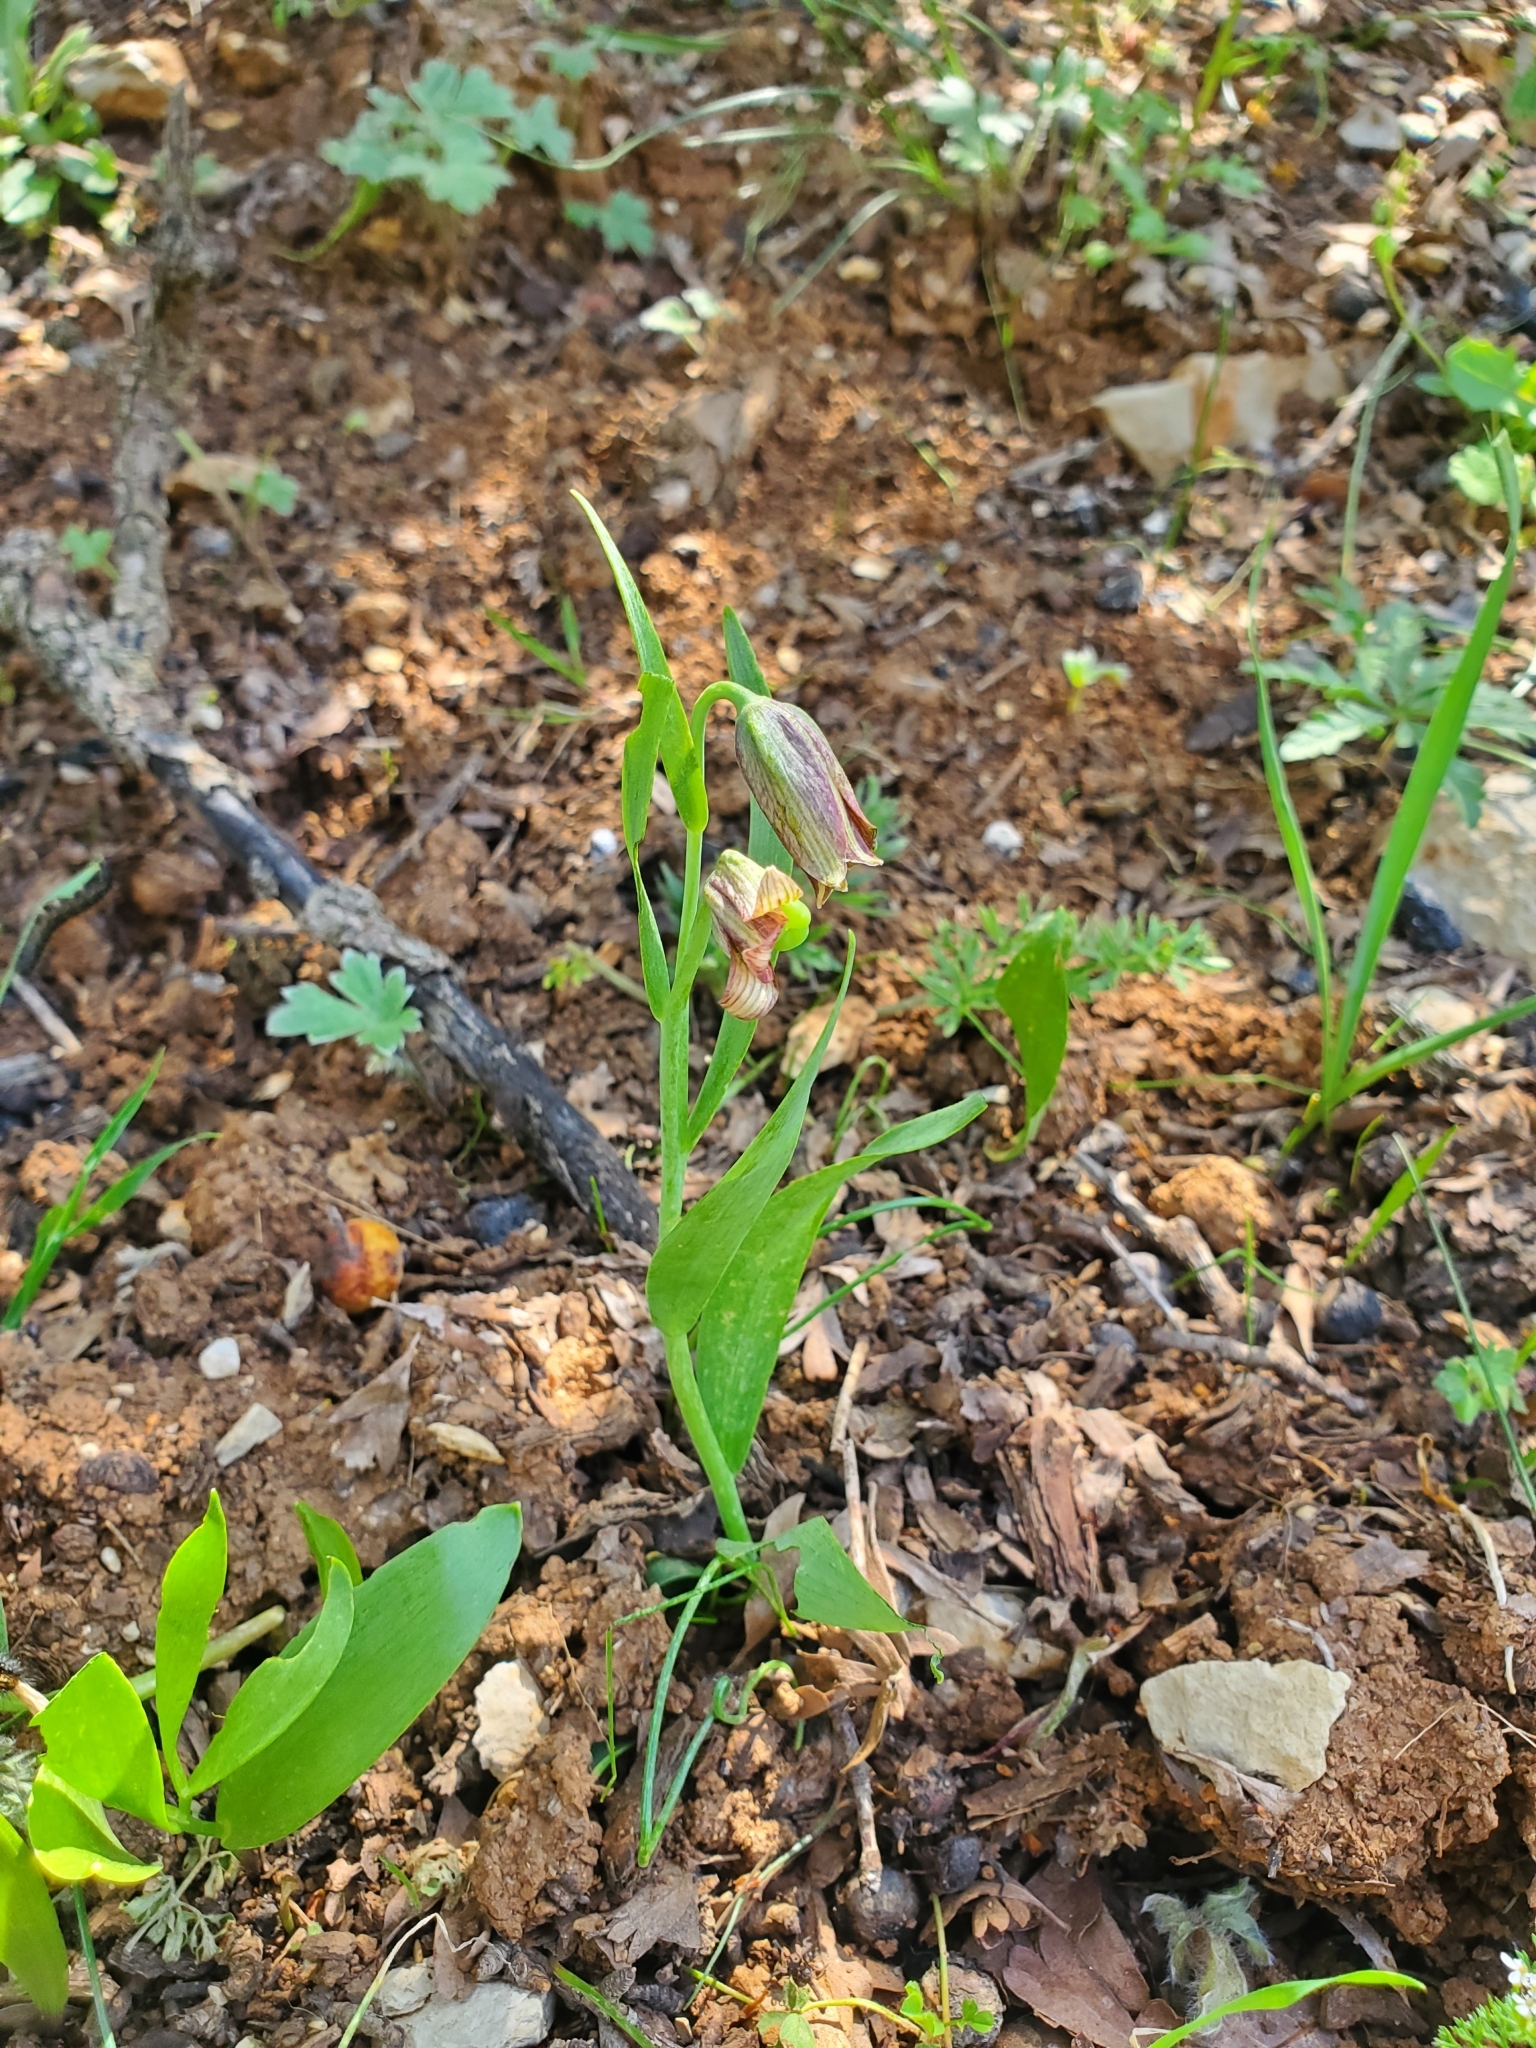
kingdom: Plantae
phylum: Tracheophyta
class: Liliopsida
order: Liliales
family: Liliaceae
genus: Fritillaria
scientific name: Fritillaria hermonis
